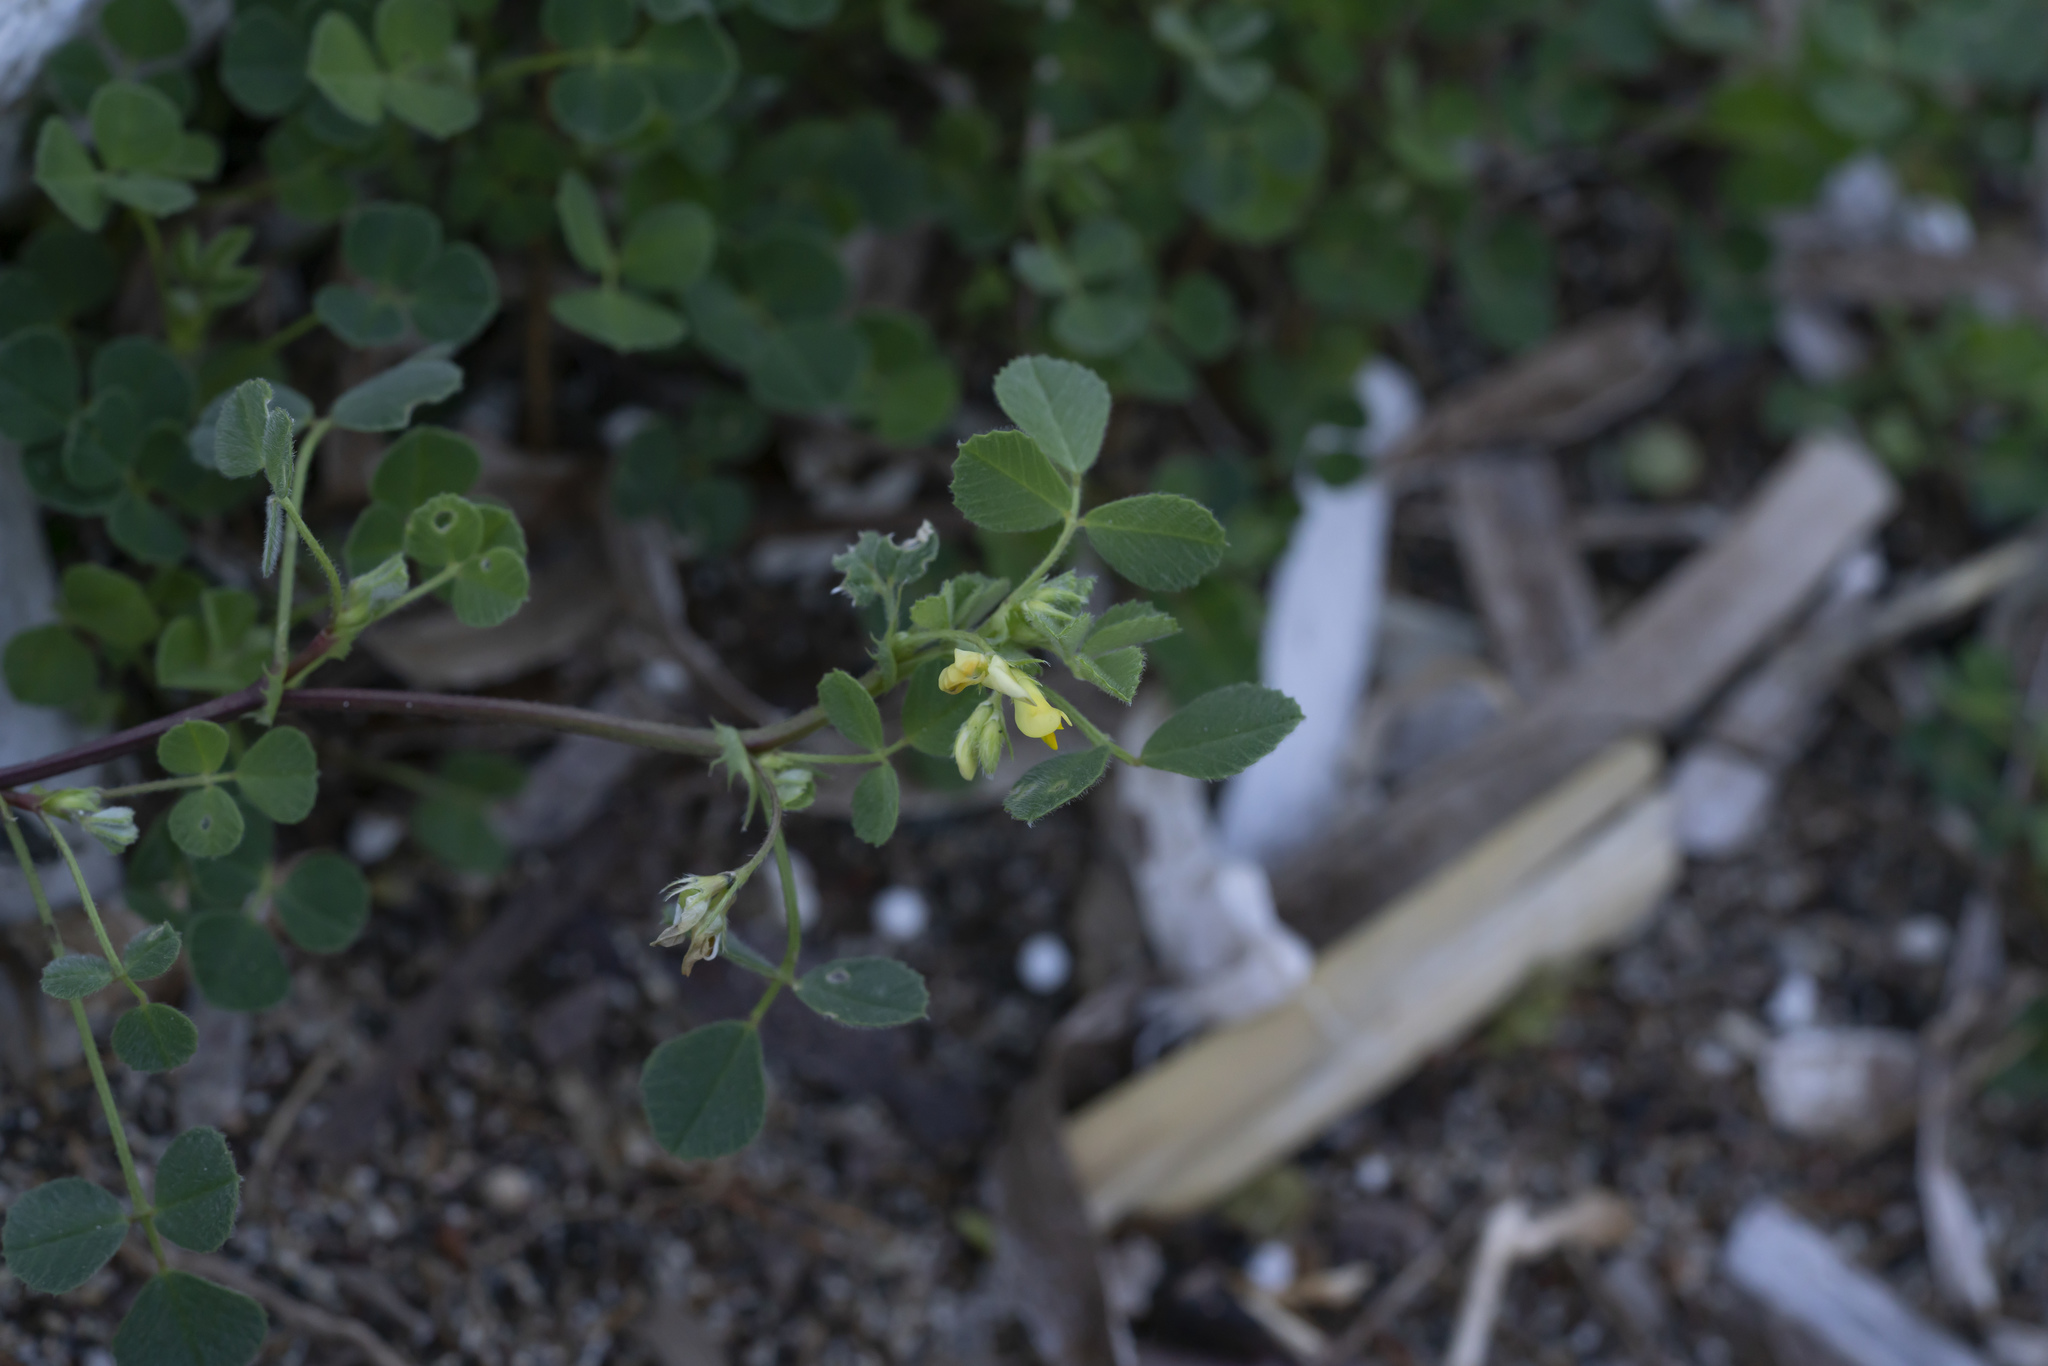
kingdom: Plantae
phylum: Tracheophyta
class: Magnoliopsida
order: Fabales
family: Fabaceae
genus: Medicago
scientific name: Medicago
